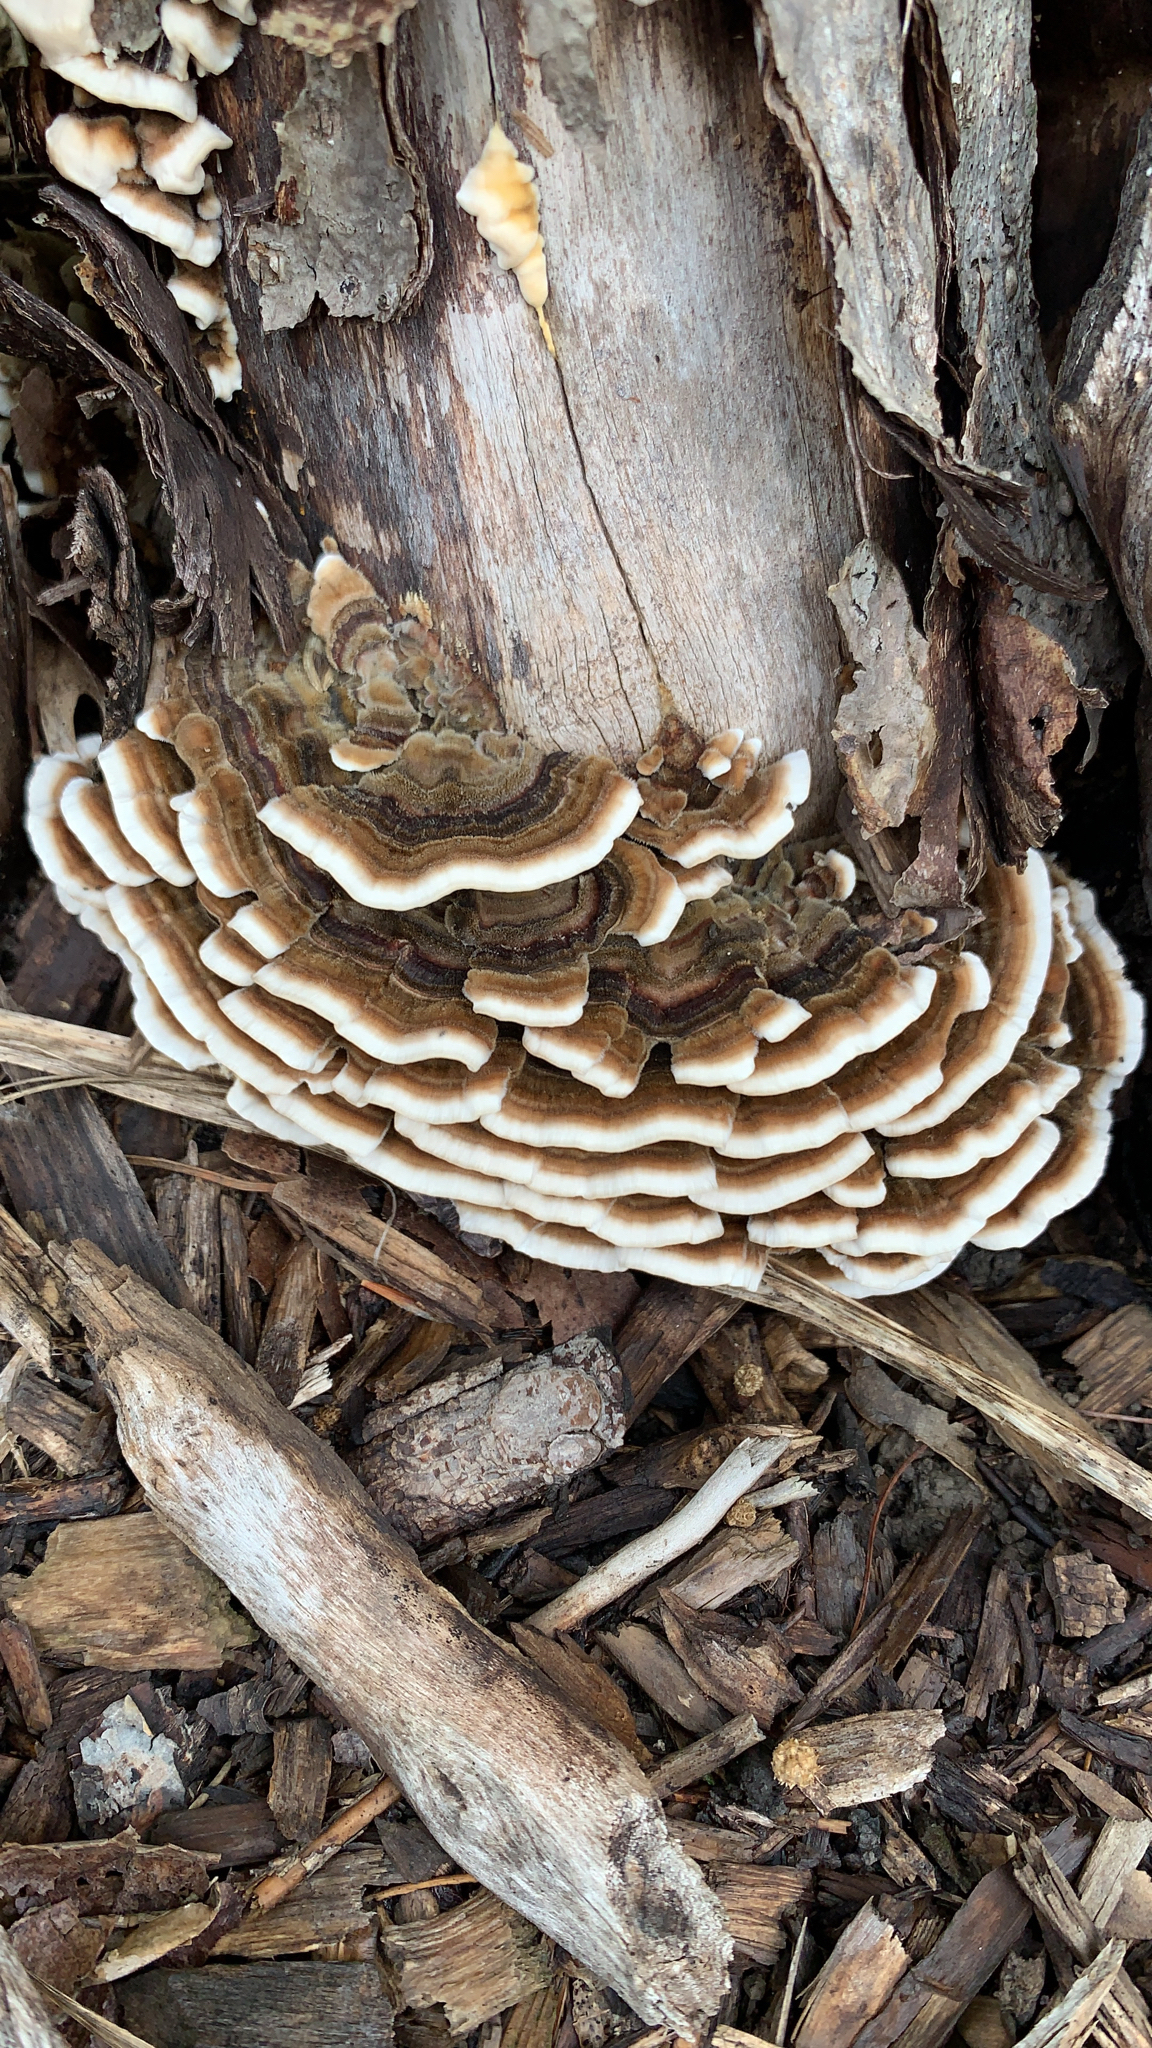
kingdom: Fungi
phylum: Basidiomycota
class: Agaricomycetes
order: Polyporales
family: Polyporaceae
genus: Trametes
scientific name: Trametes versicolor
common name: Turkeytail
